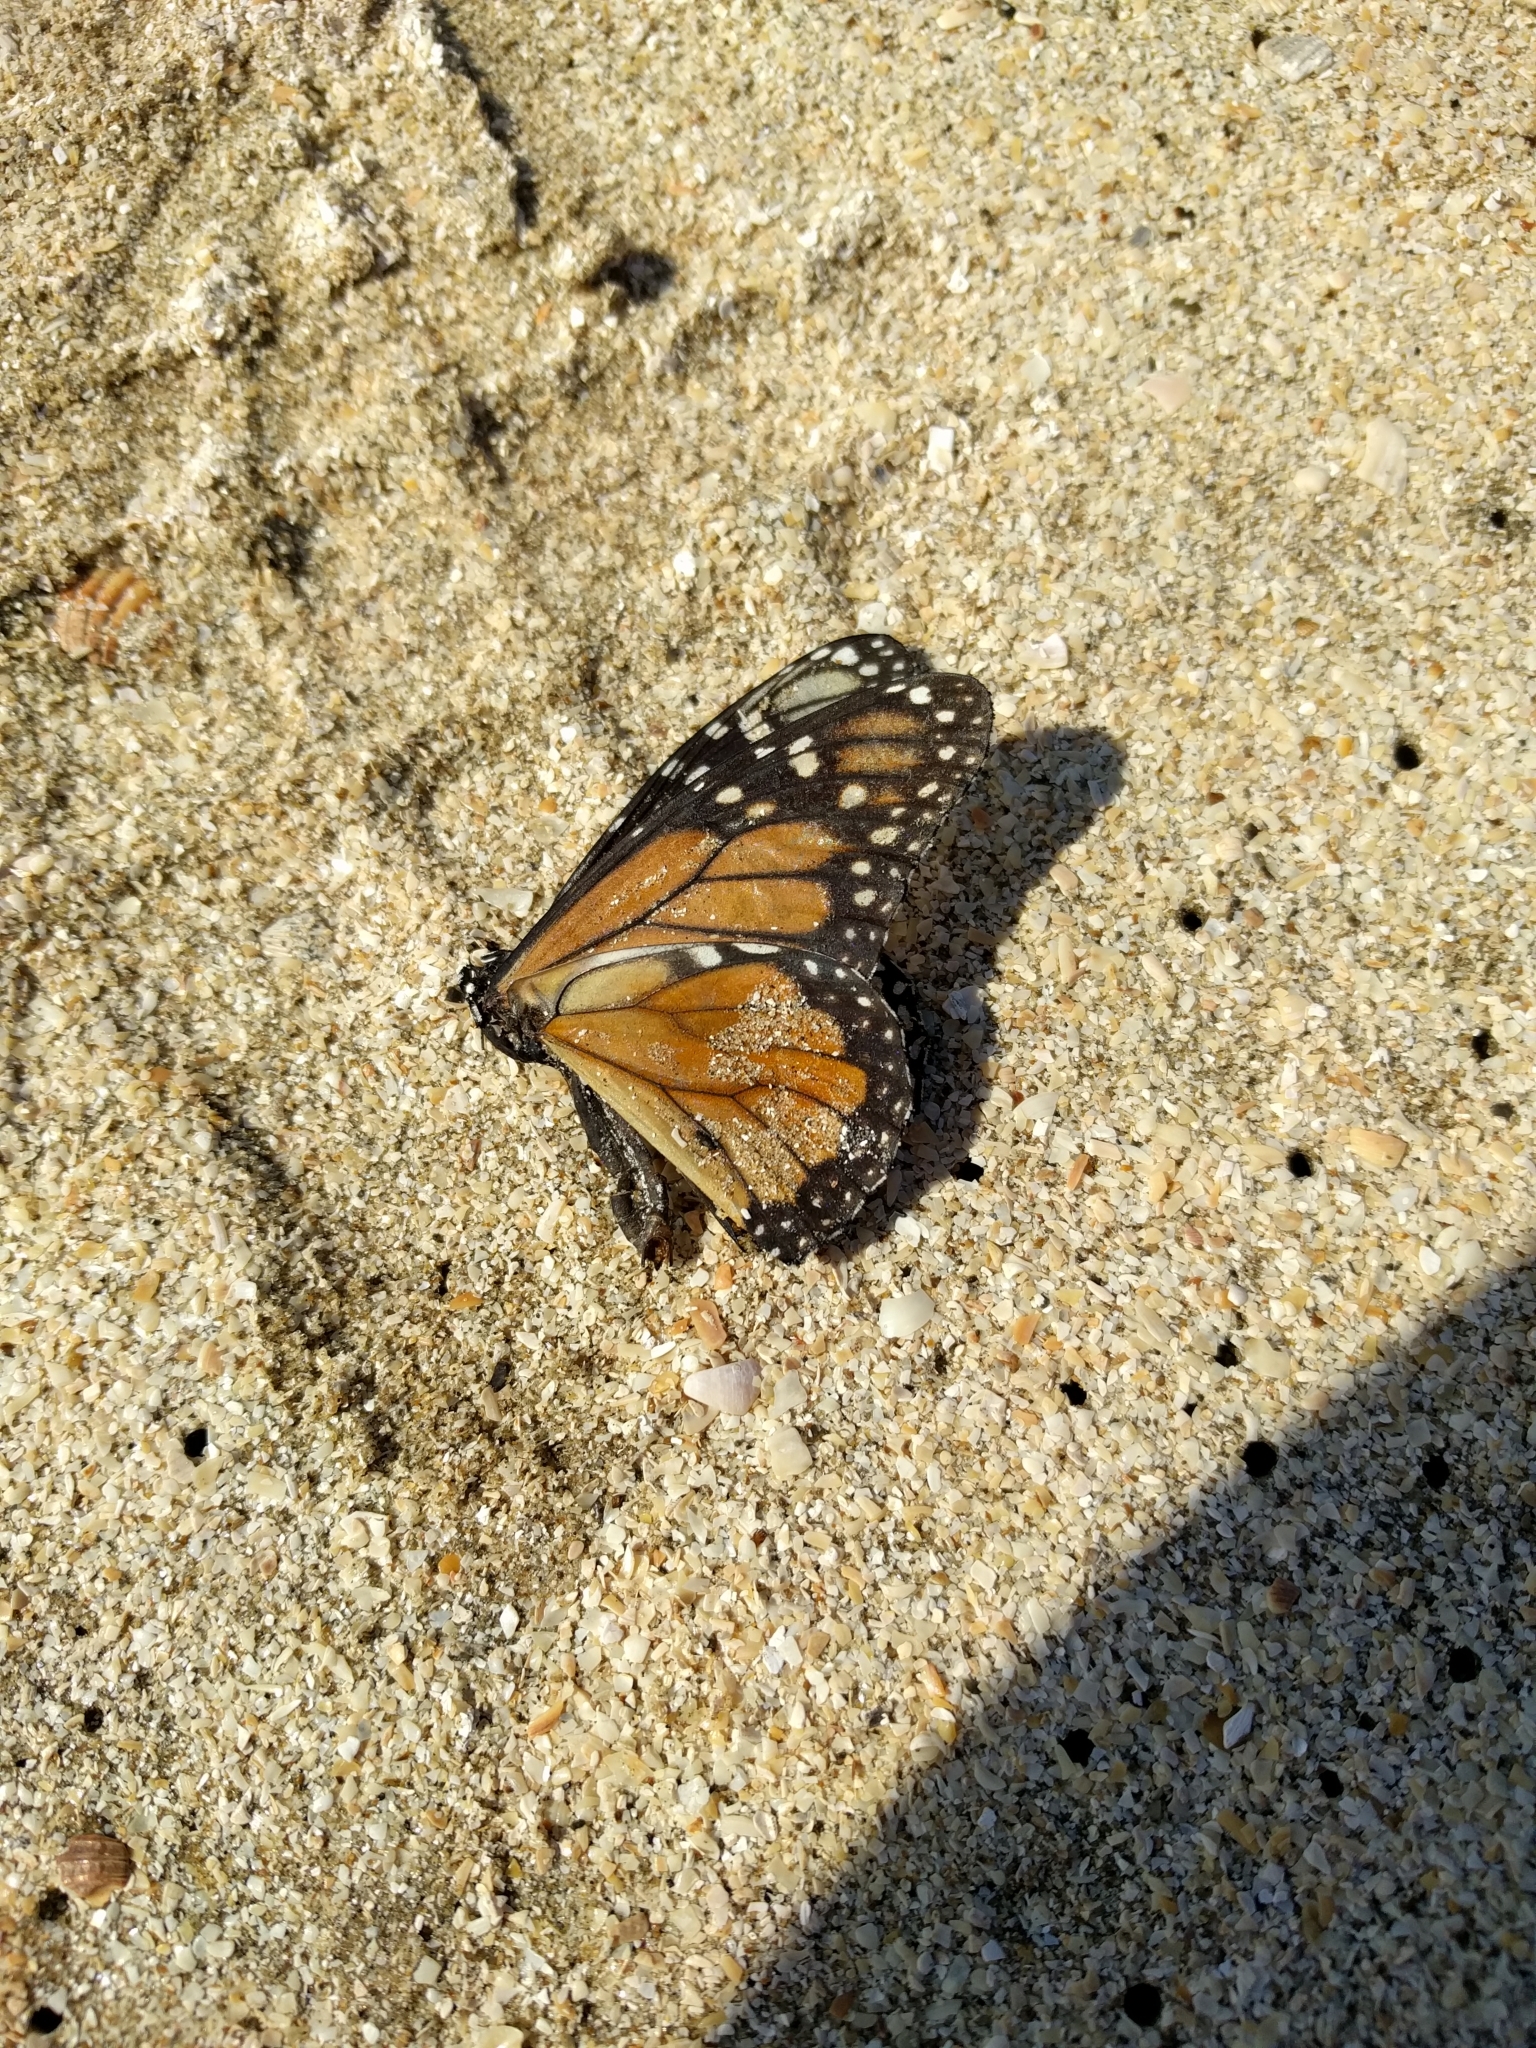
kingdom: Animalia
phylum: Arthropoda
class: Insecta
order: Lepidoptera
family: Nymphalidae
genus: Danaus
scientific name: Danaus plexippus
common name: Monarch
